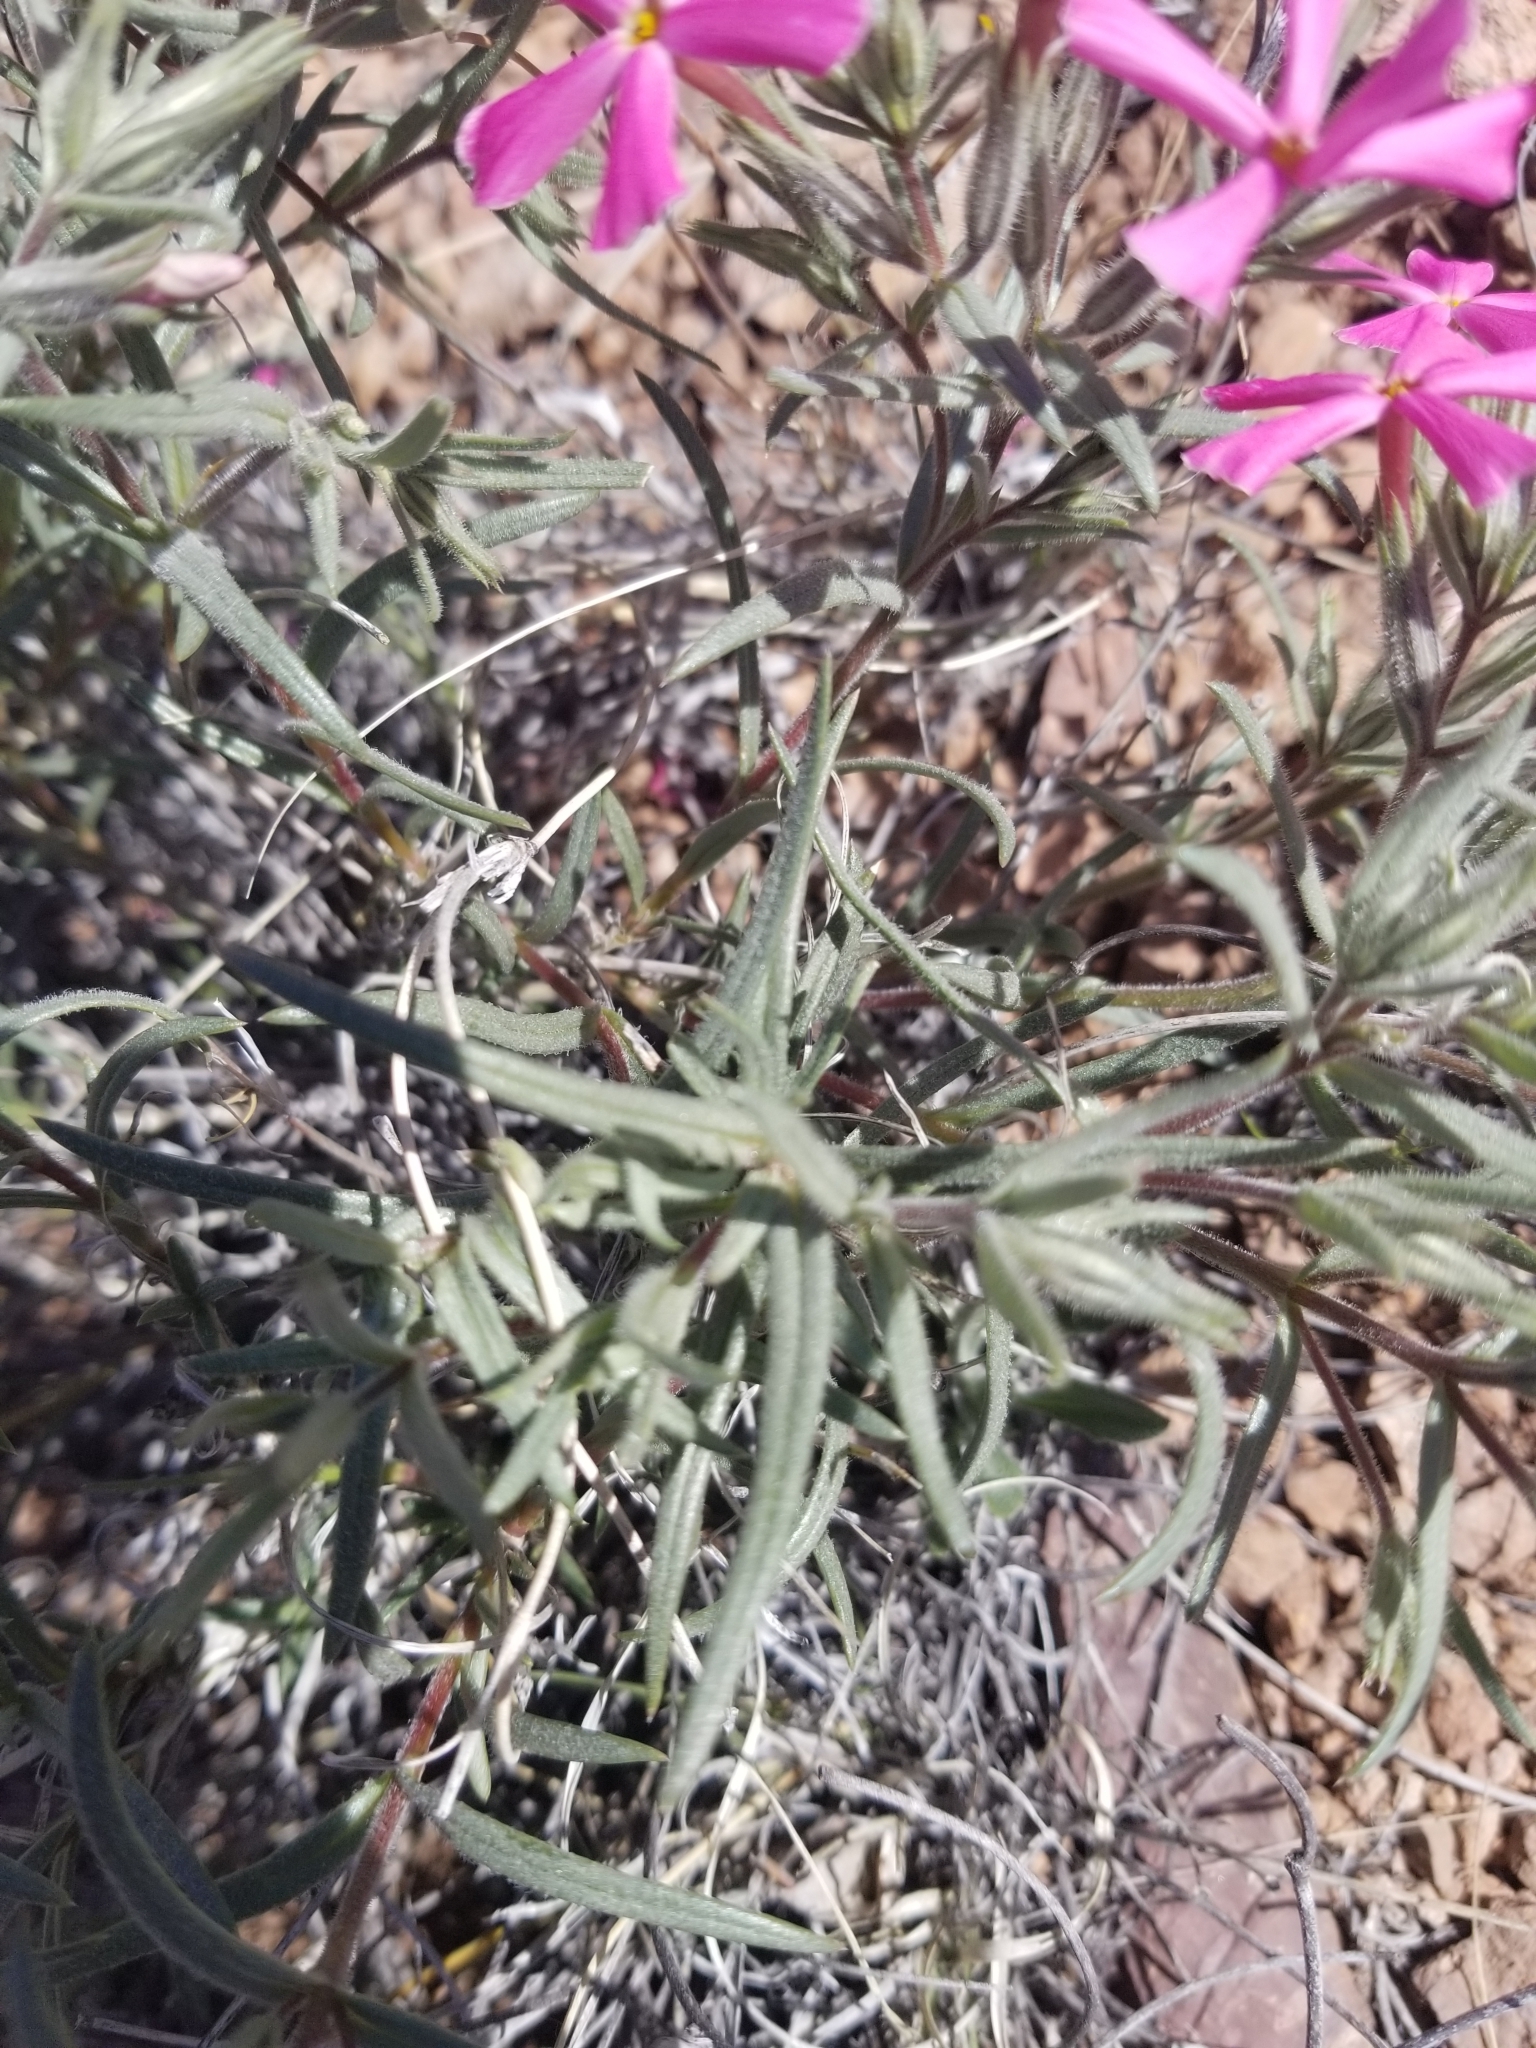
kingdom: Plantae
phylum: Tracheophyta
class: Magnoliopsida
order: Ericales
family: Polemoniaceae
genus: Phlox
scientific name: Phlox longifolia
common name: Longleaf phlox
